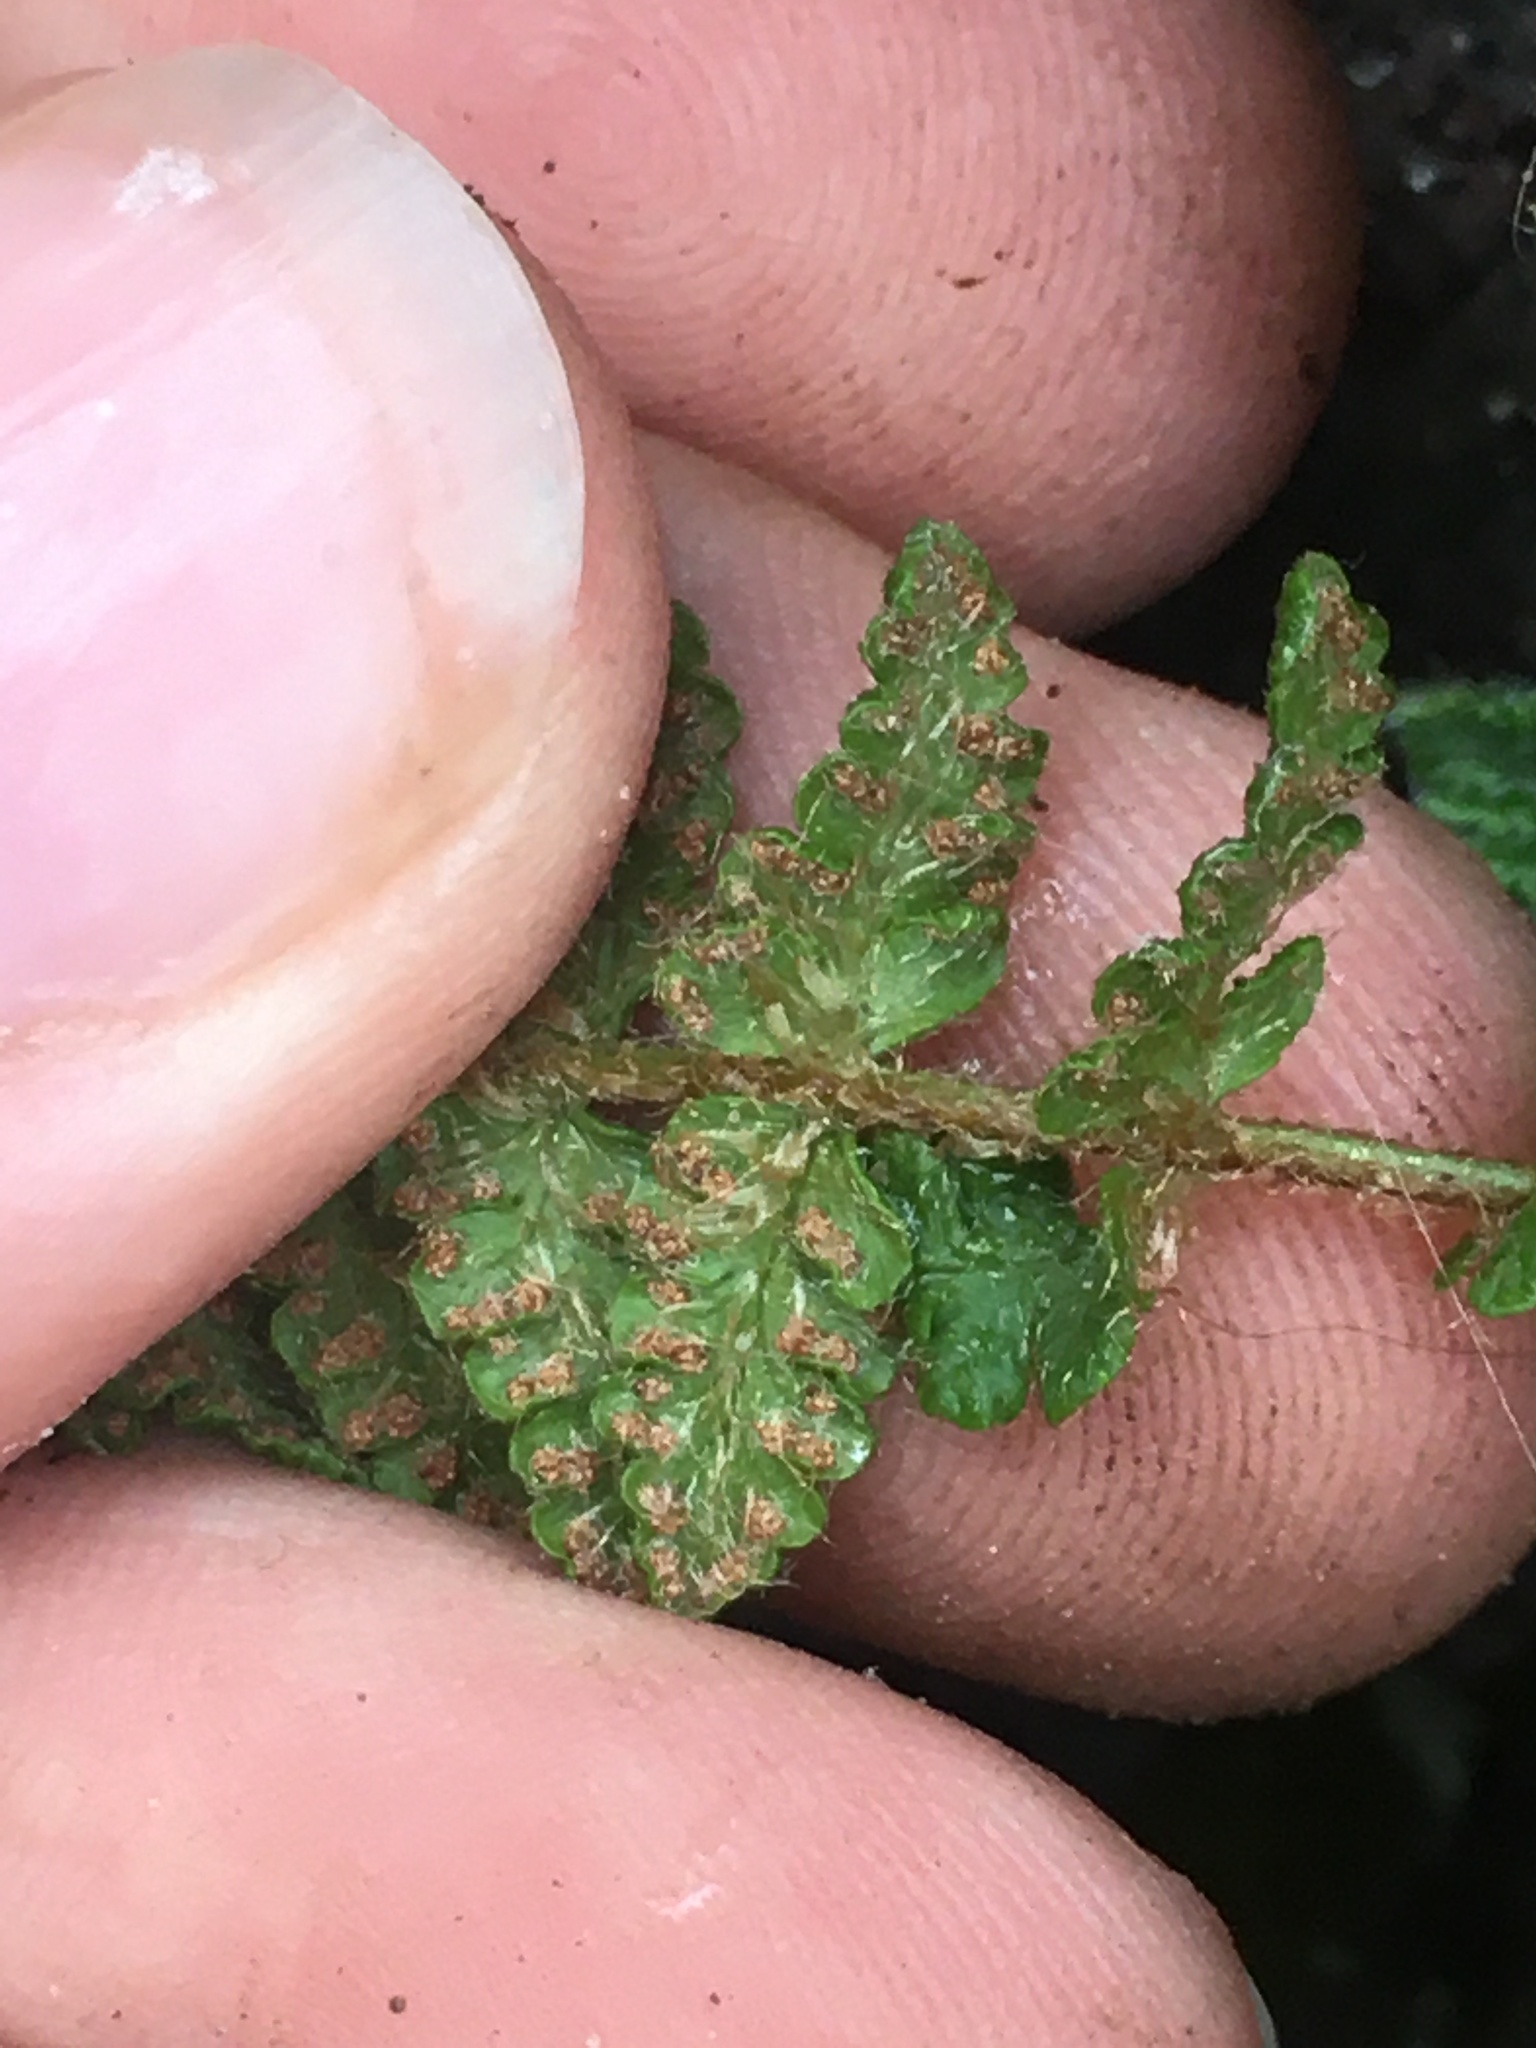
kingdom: Plantae
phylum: Tracheophyta
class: Polypodiopsida
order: Polypodiales
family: Woodsiaceae
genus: Woodsia
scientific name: Woodsia ilvensis
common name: Fragrant woodsia
